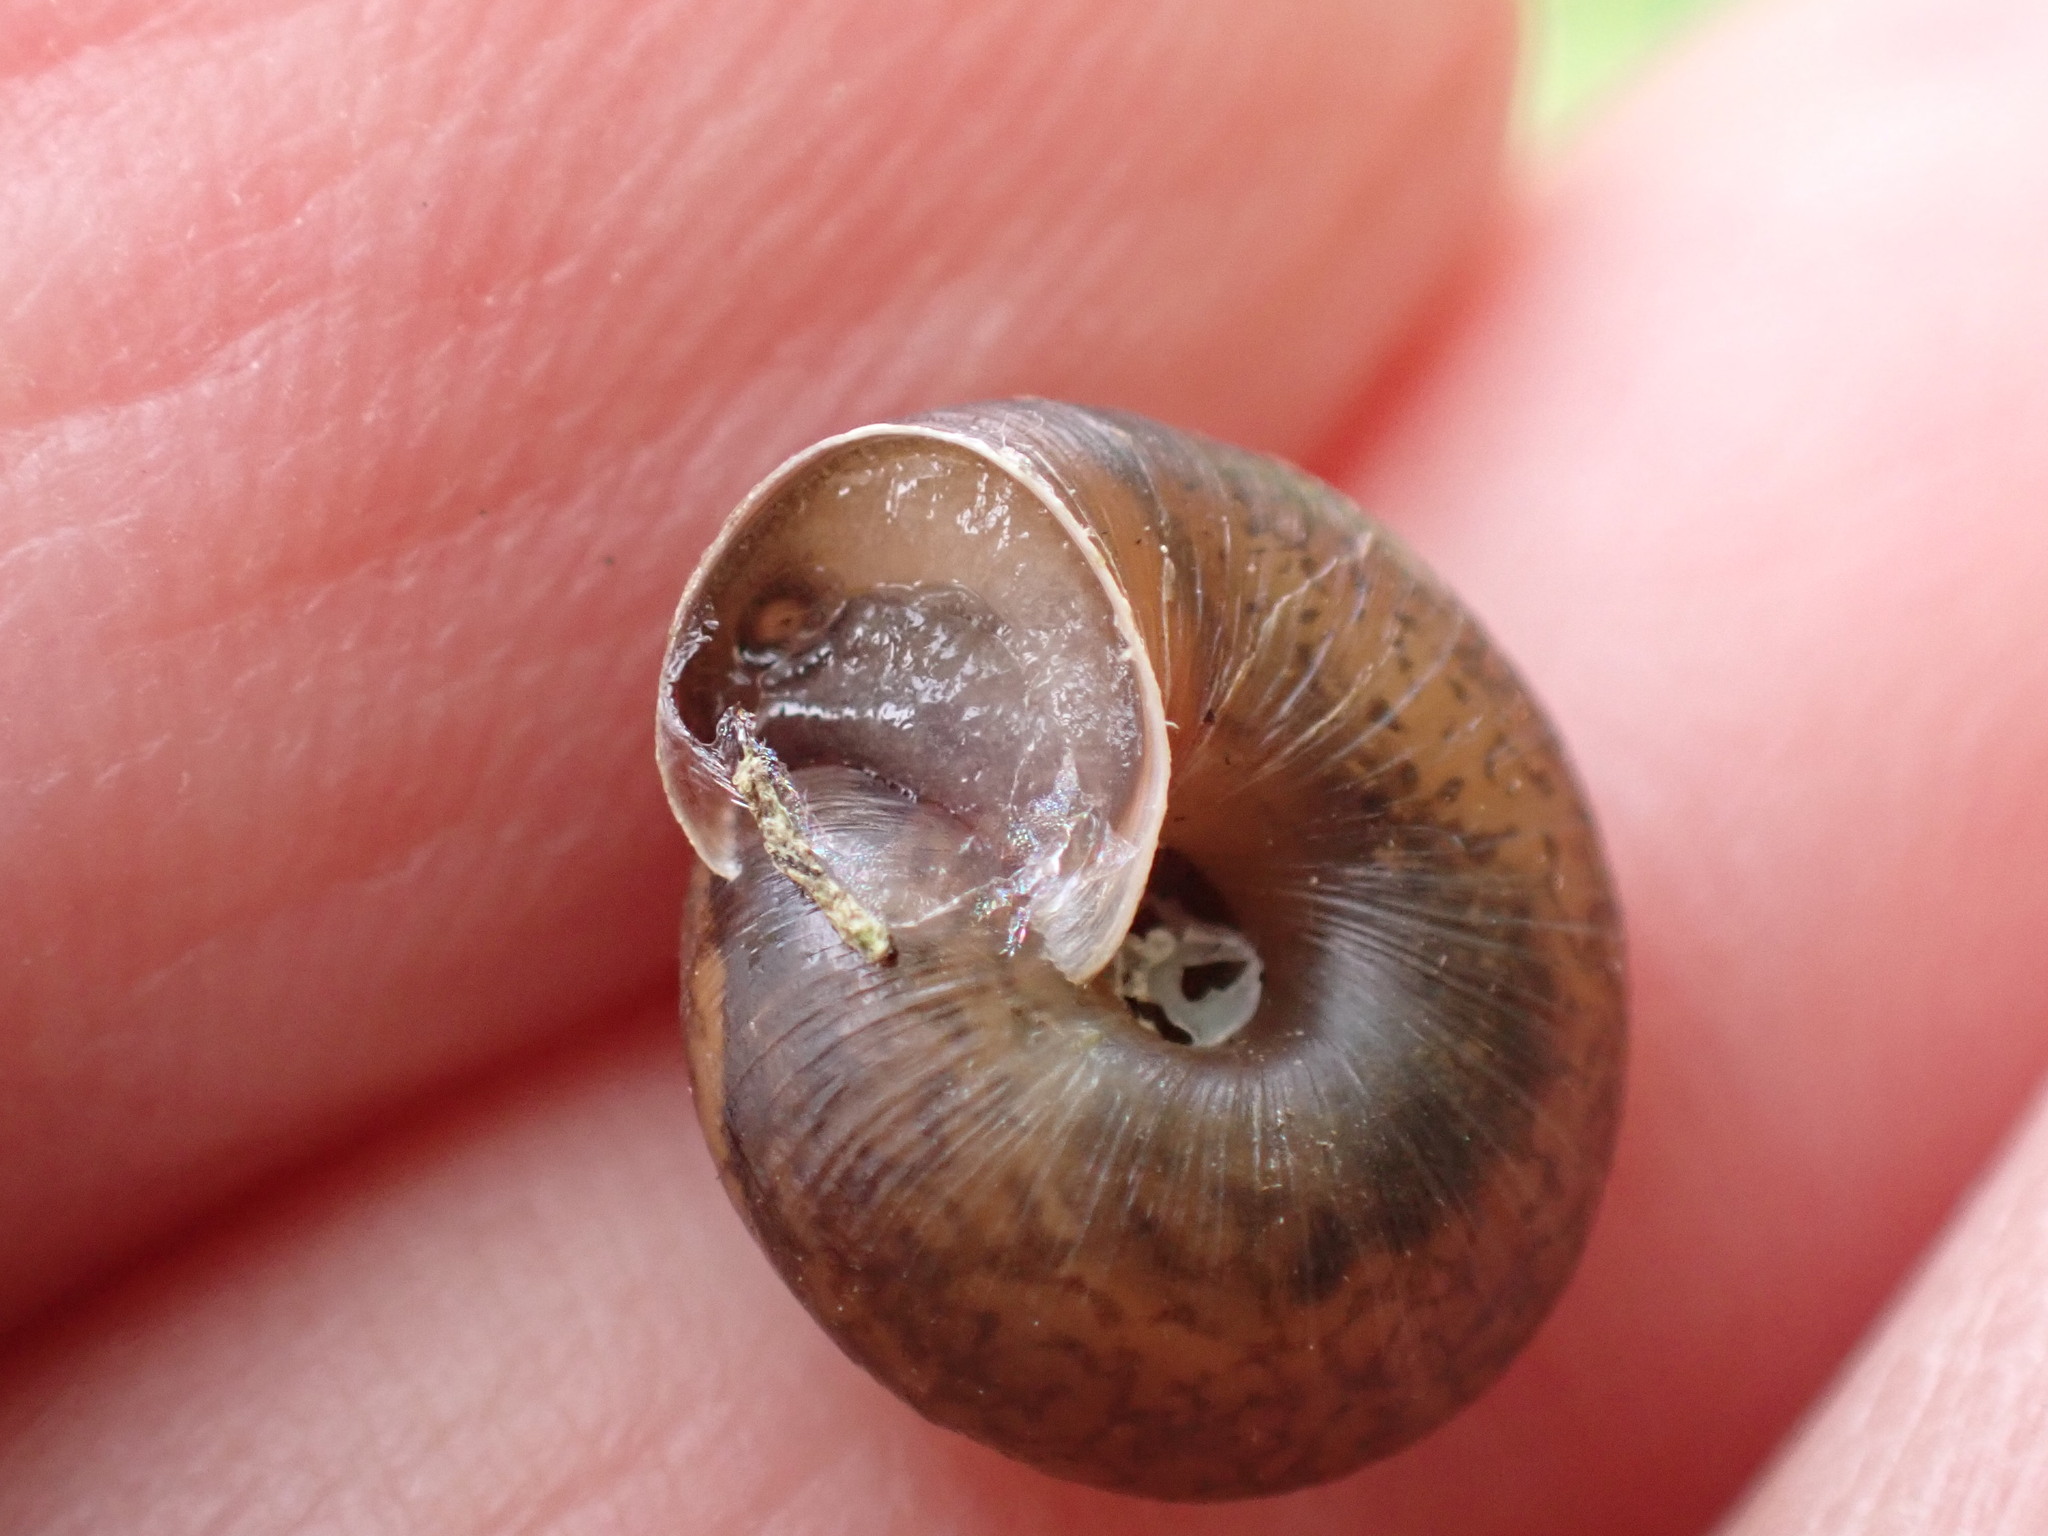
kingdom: Animalia
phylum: Mollusca
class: Gastropoda
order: Stylommatophora
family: Hygromiidae
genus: Trochulus
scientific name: Trochulus striolatus
